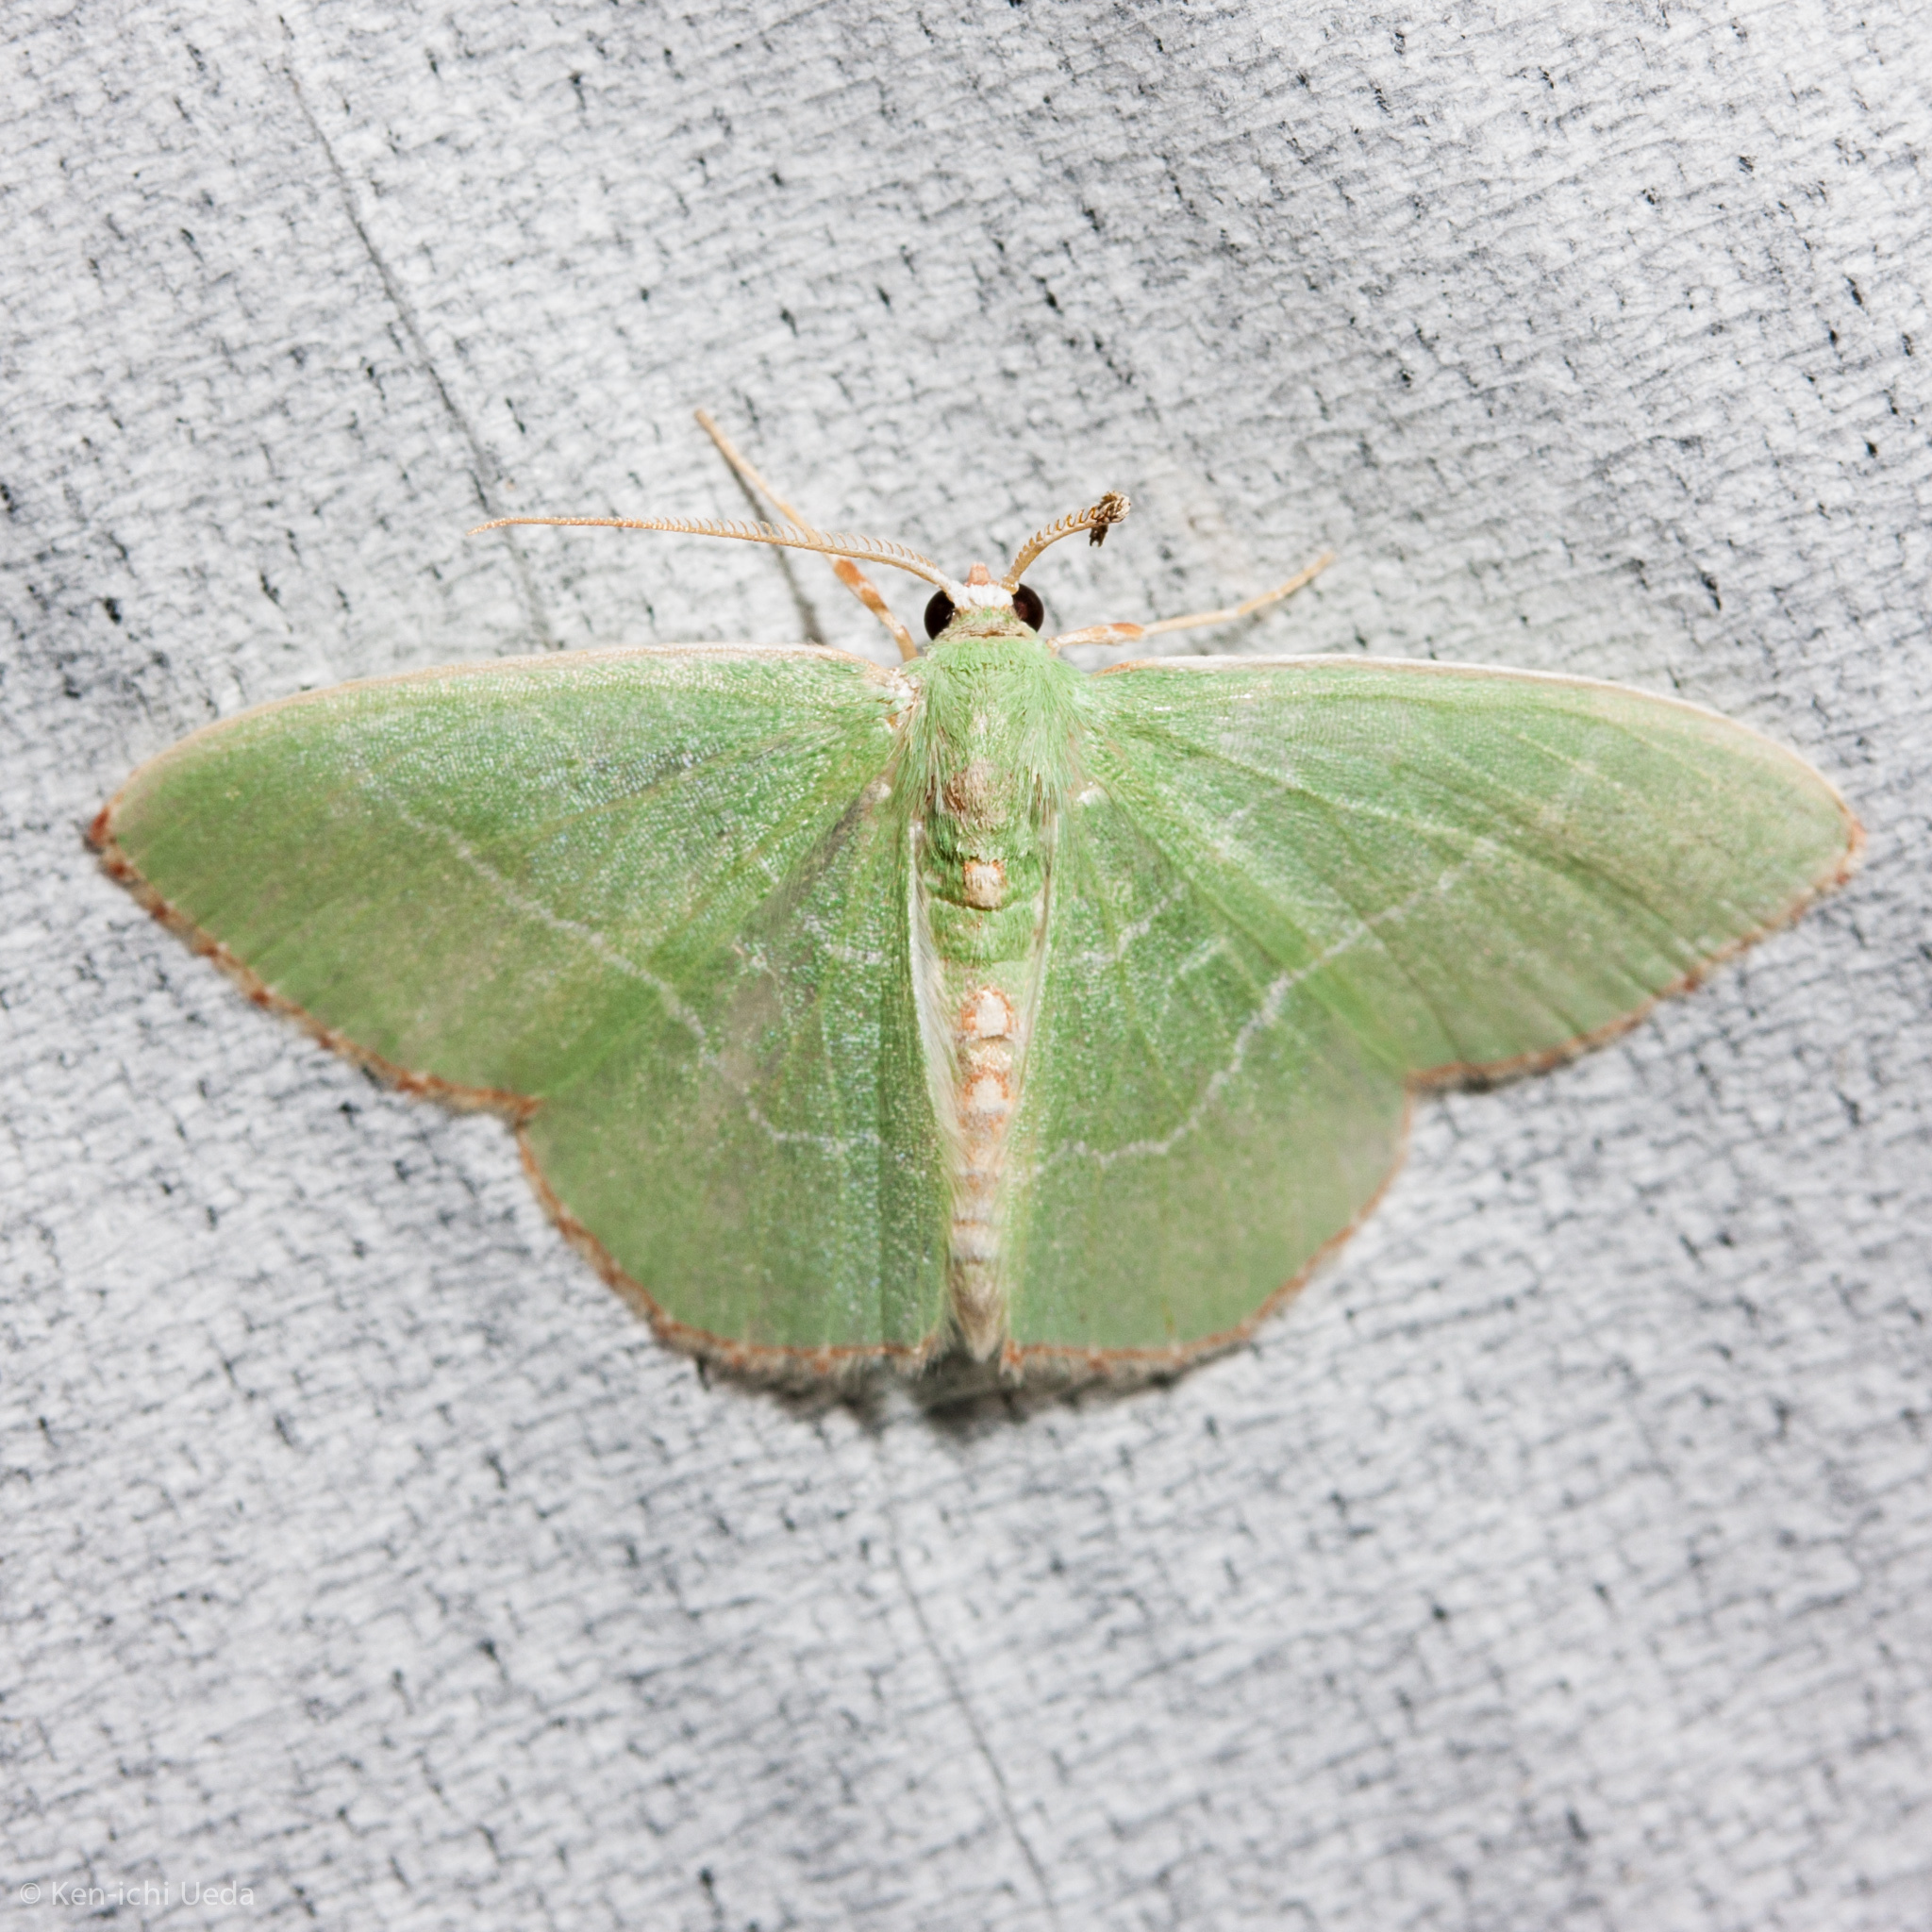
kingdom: Animalia
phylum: Arthropoda
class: Insecta
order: Lepidoptera
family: Geometridae
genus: Nemoria
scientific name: Nemoria bistriaria
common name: Red-fringed emerald
